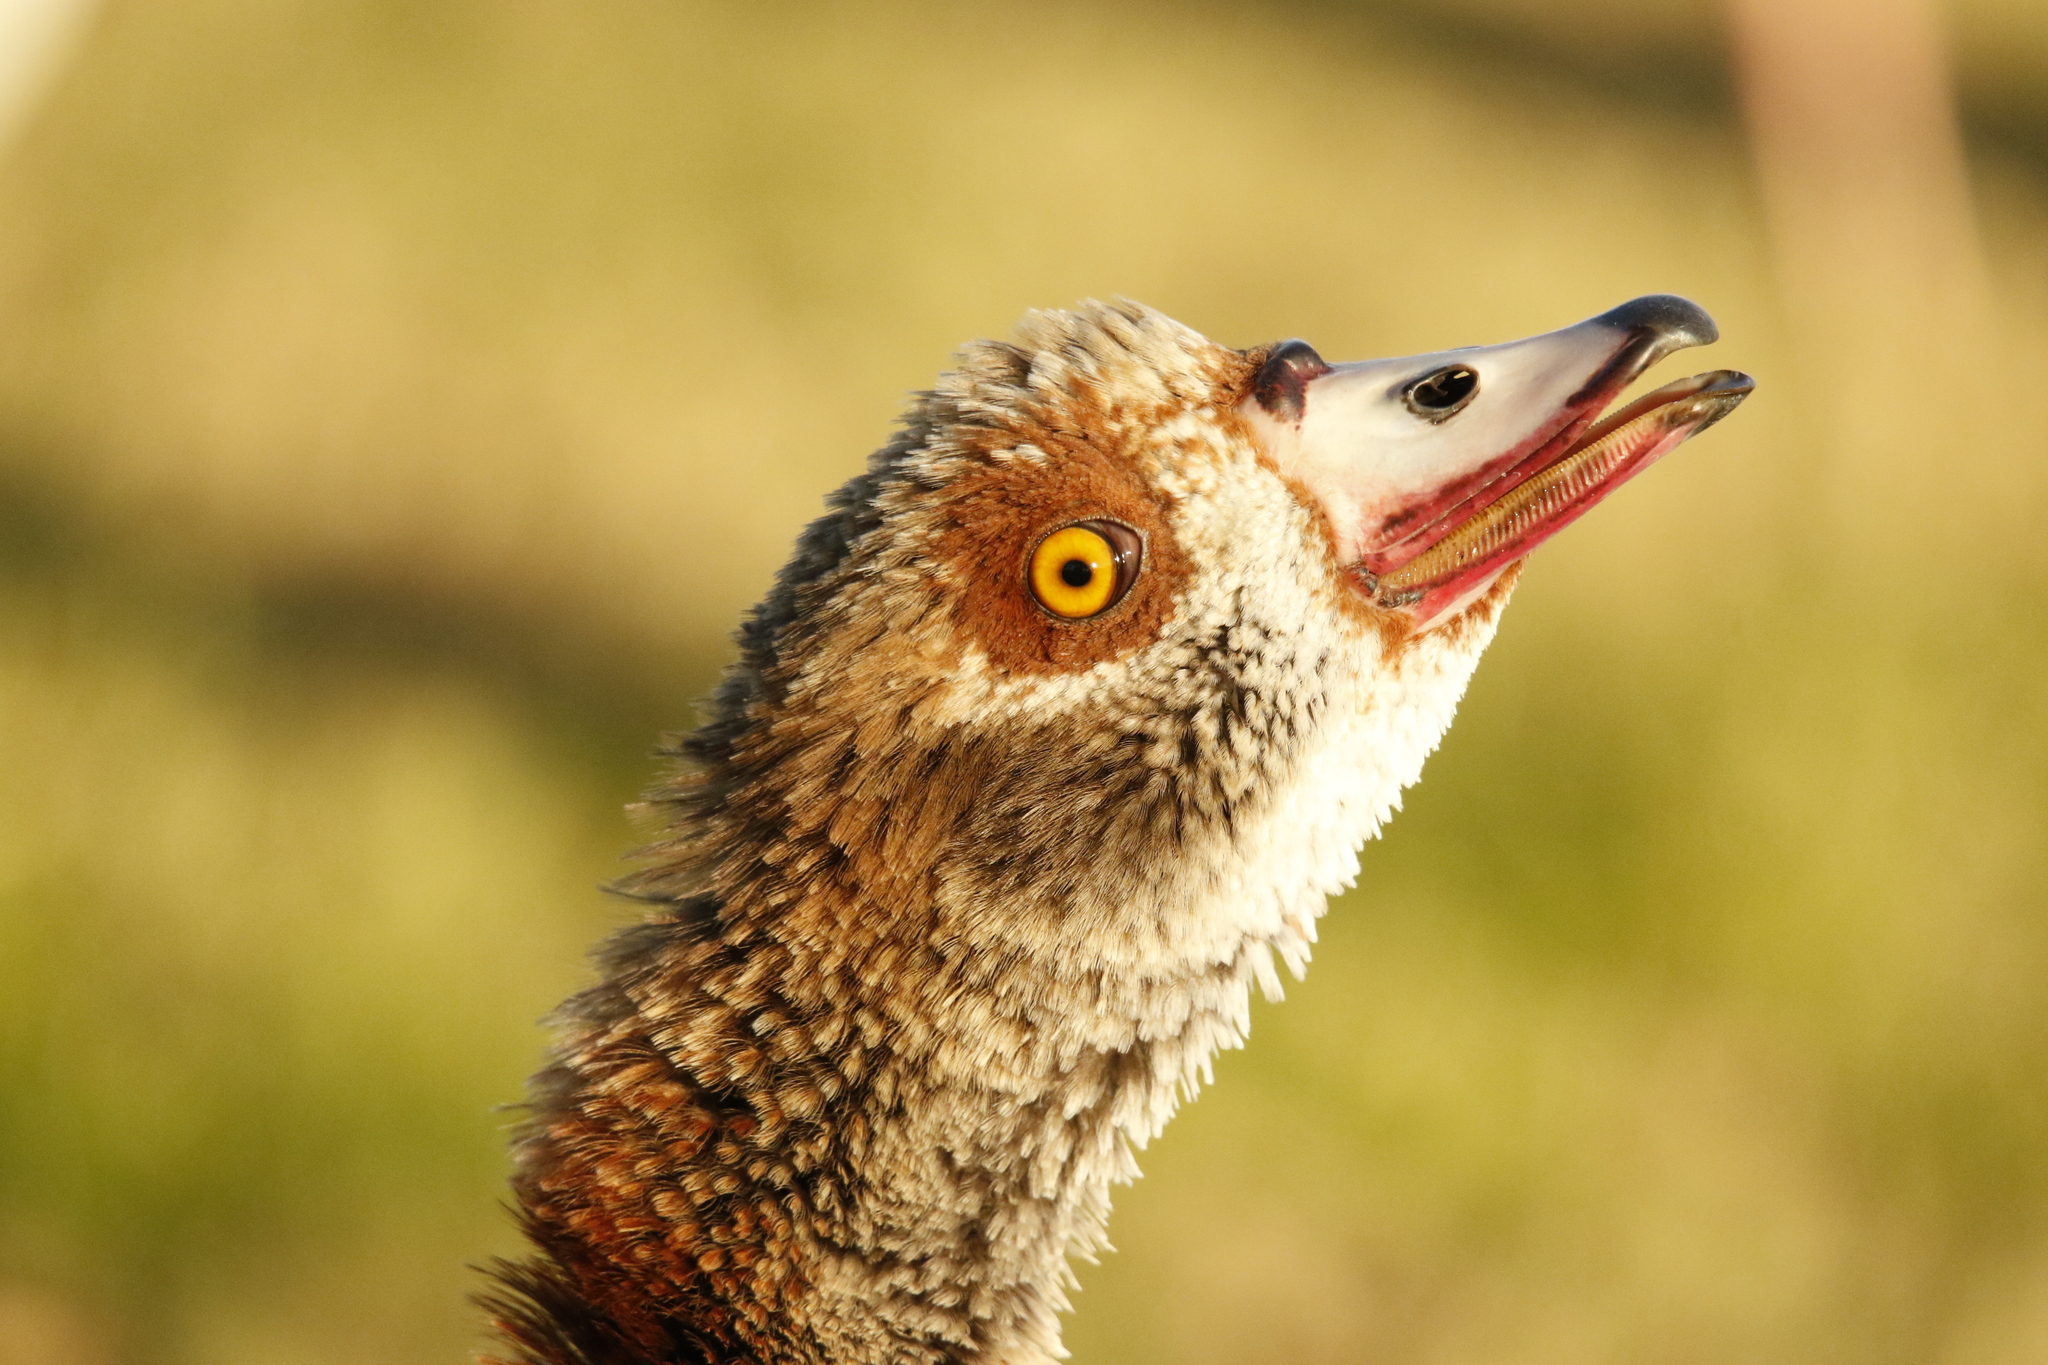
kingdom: Animalia
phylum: Chordata
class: Aves
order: Anseriformes
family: Anatidae
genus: Alopochen
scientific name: Alopochen aegyptiaca
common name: Egyptian goose
